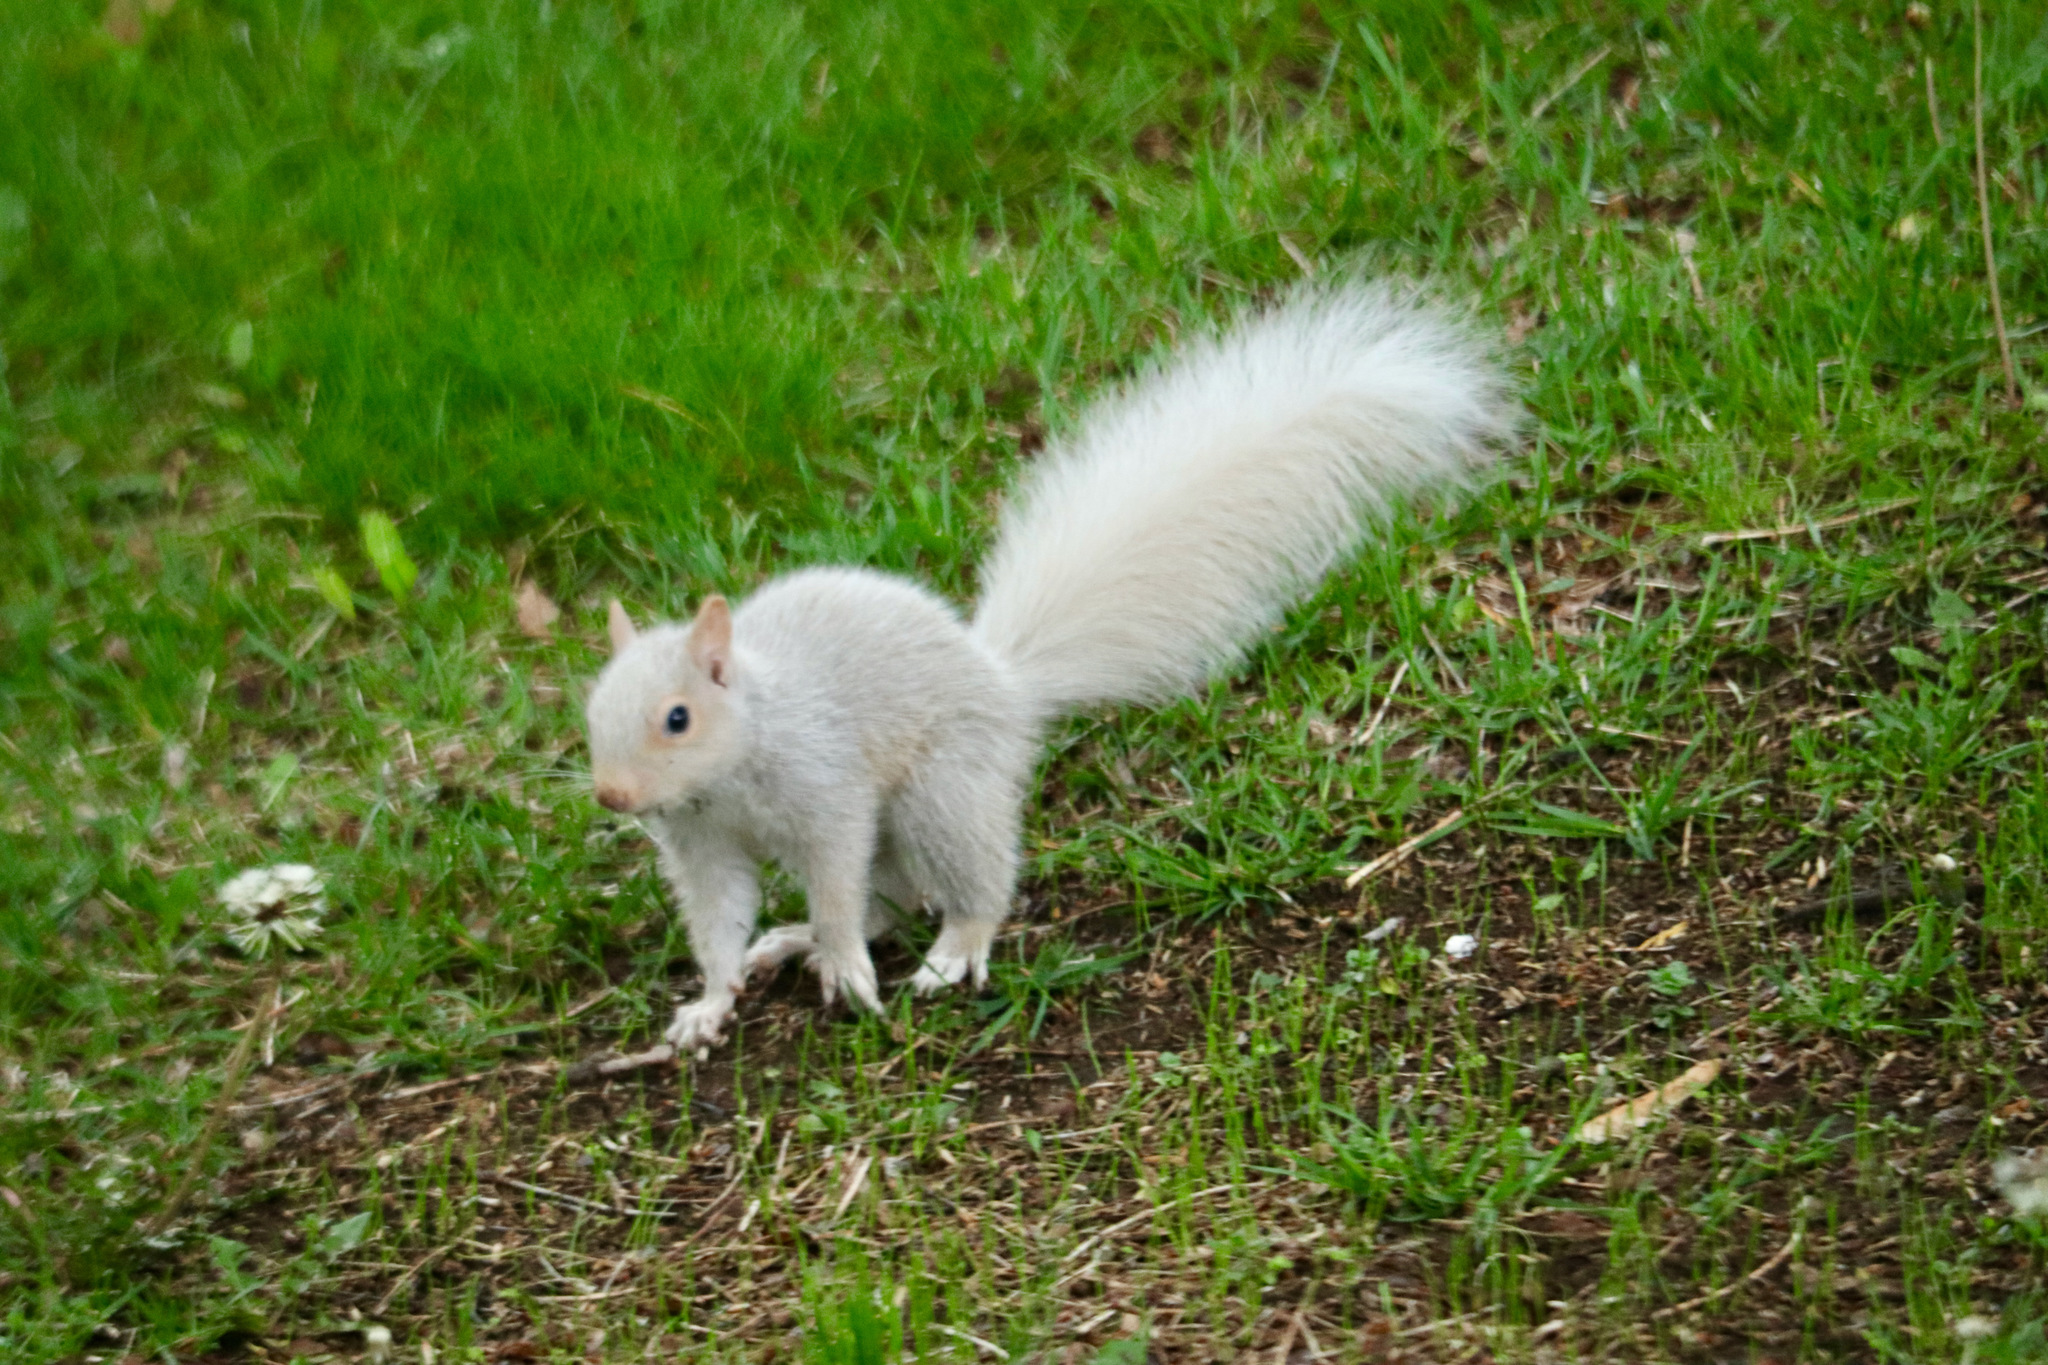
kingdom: Animalia
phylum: Chordata
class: Mammalia
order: Rodentia
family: Sciuridae
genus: Sciurus
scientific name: Sciurus carolinensis
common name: Eastern gray squirrel
